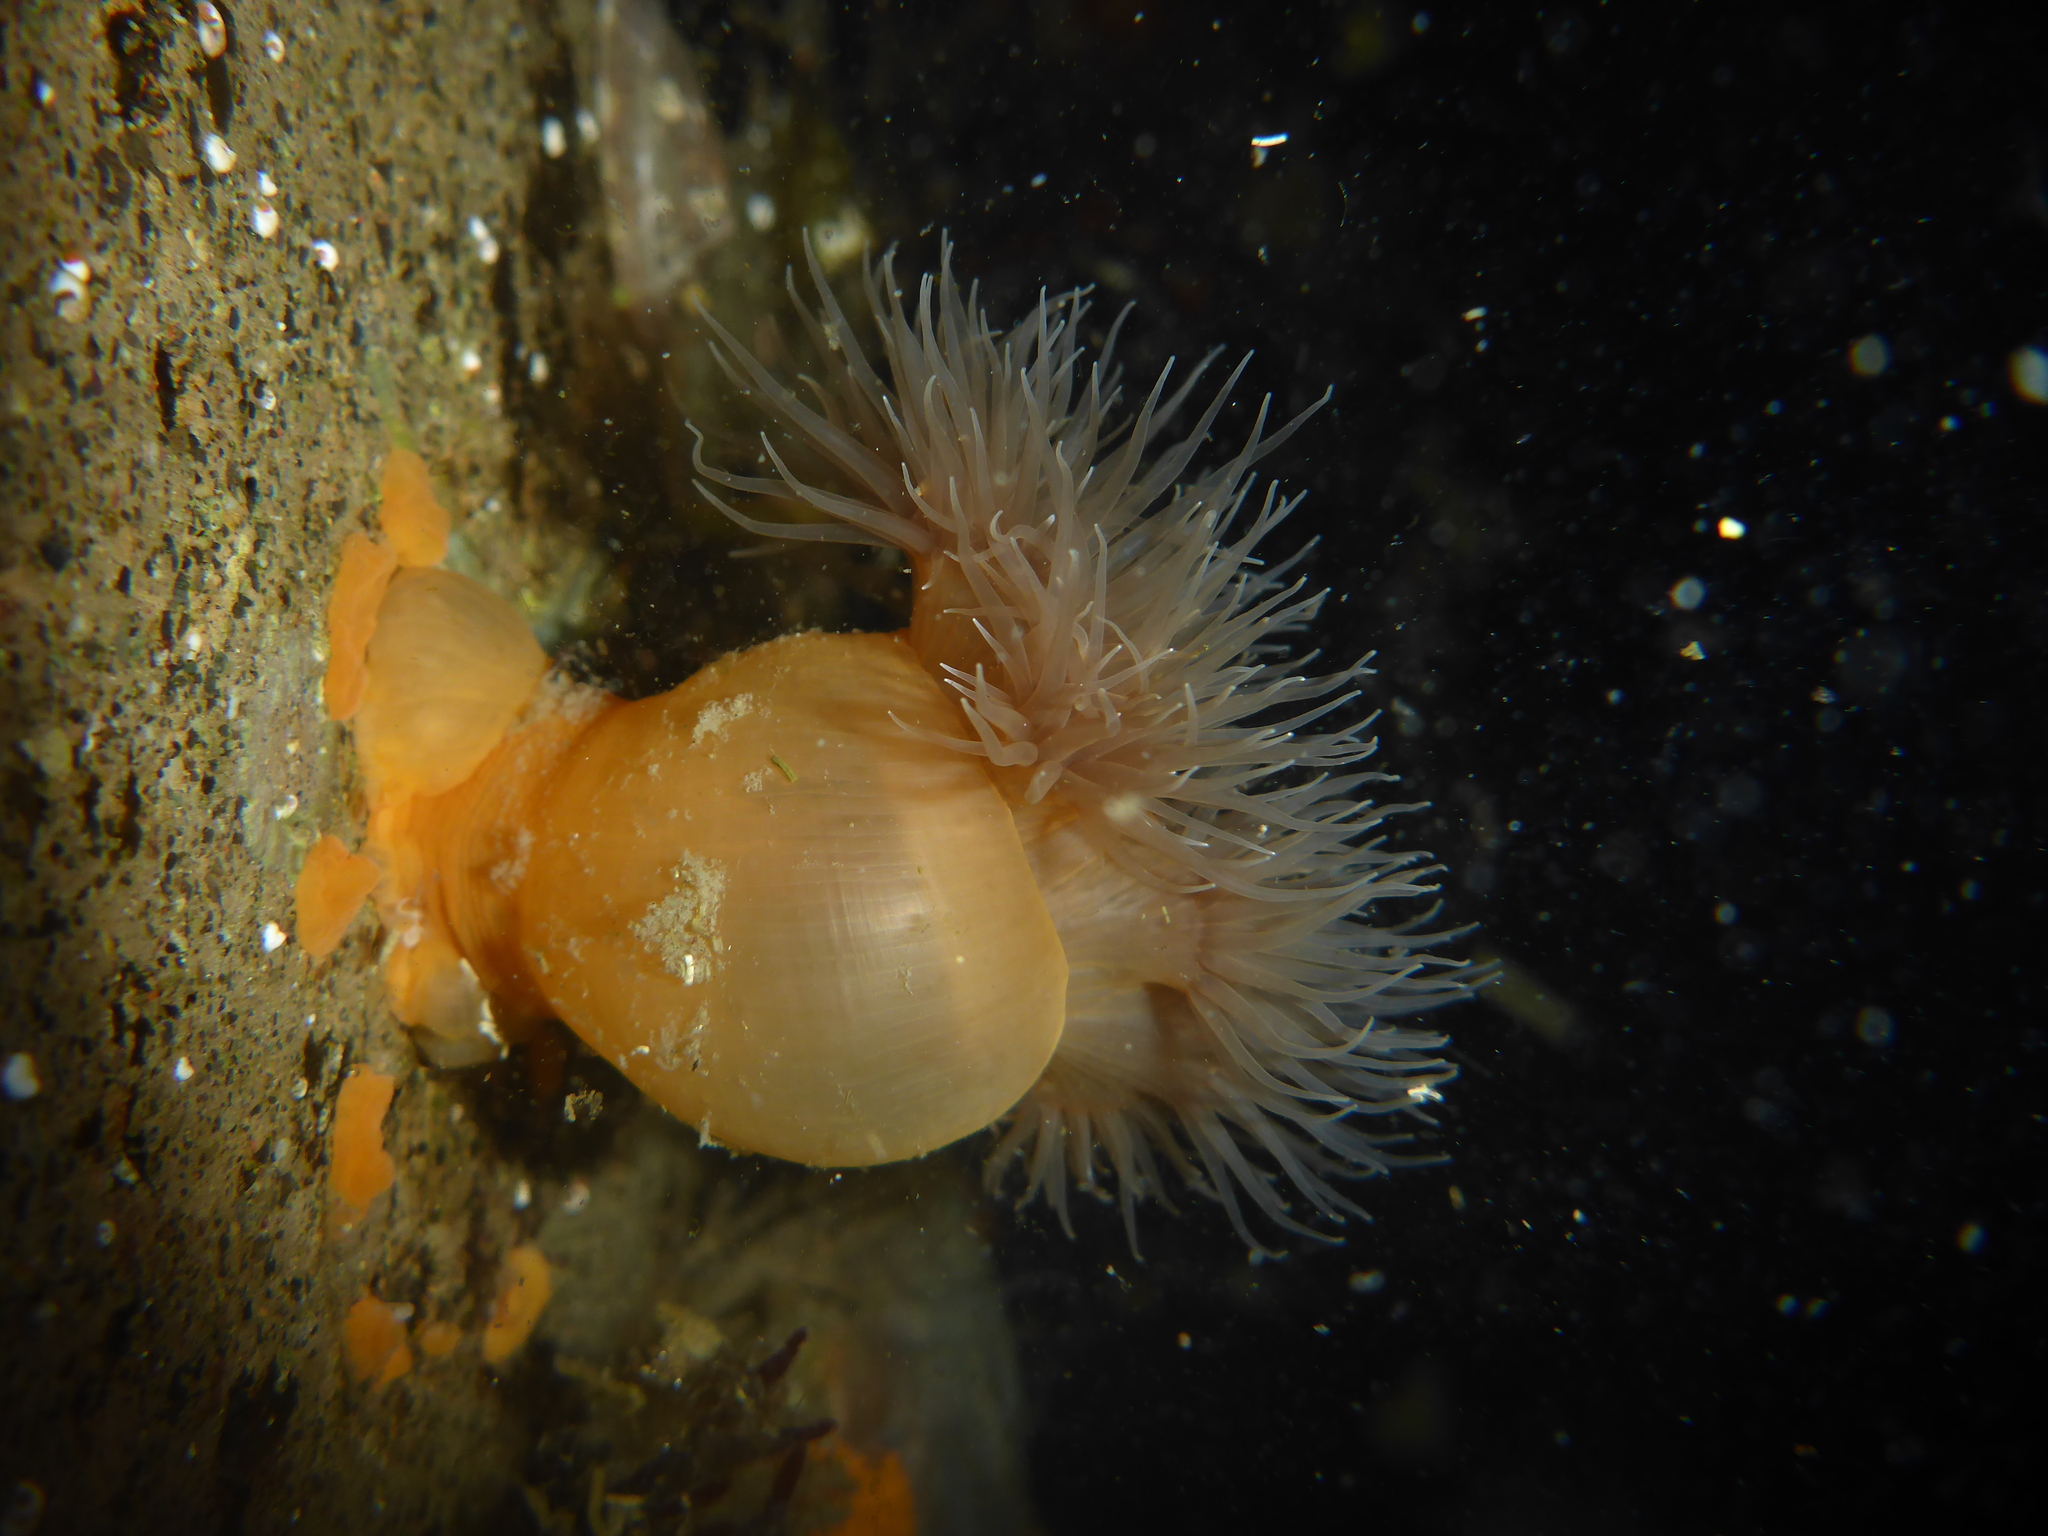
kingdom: Animalia
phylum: Cnidaria
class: Anthozoa
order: Actiniaria
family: Metridiidae
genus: Metridium
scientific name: Metridium senile
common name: Clonal plumose anemone
